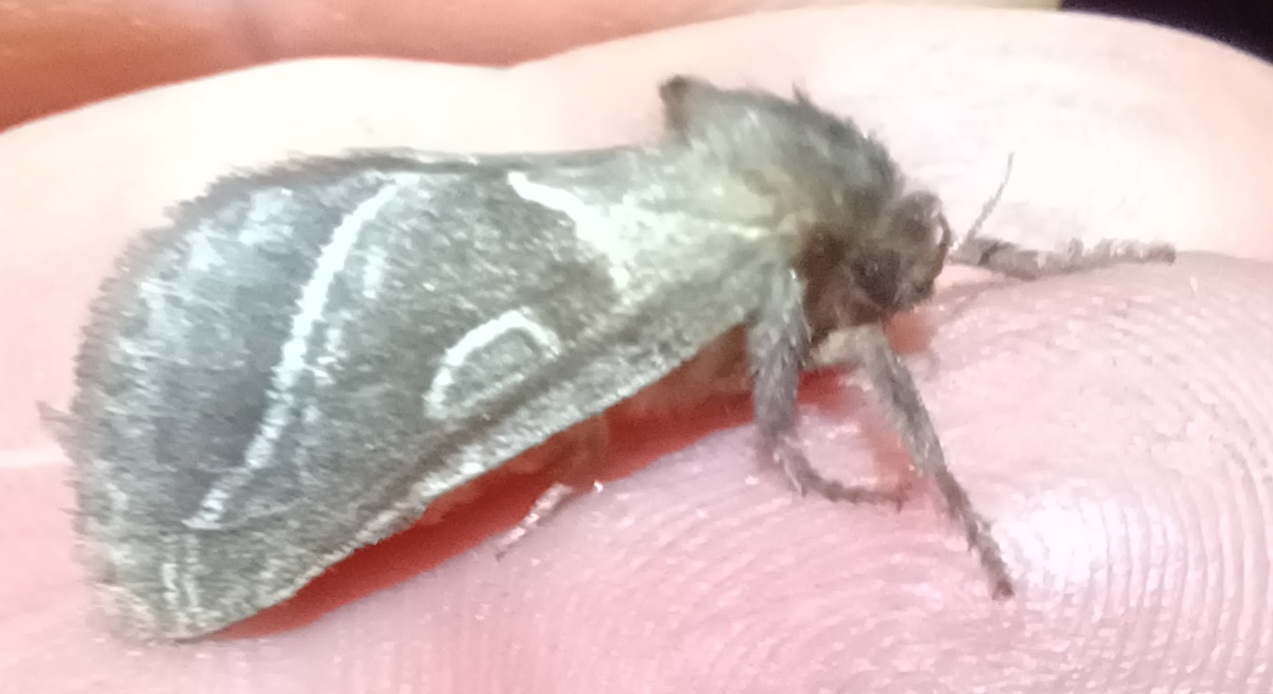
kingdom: Animalia
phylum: Arthropoda
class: Insecta
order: Lepidoptera
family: Hepialidae
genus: Triodia
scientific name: Triodia sylvina
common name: Orange swift
